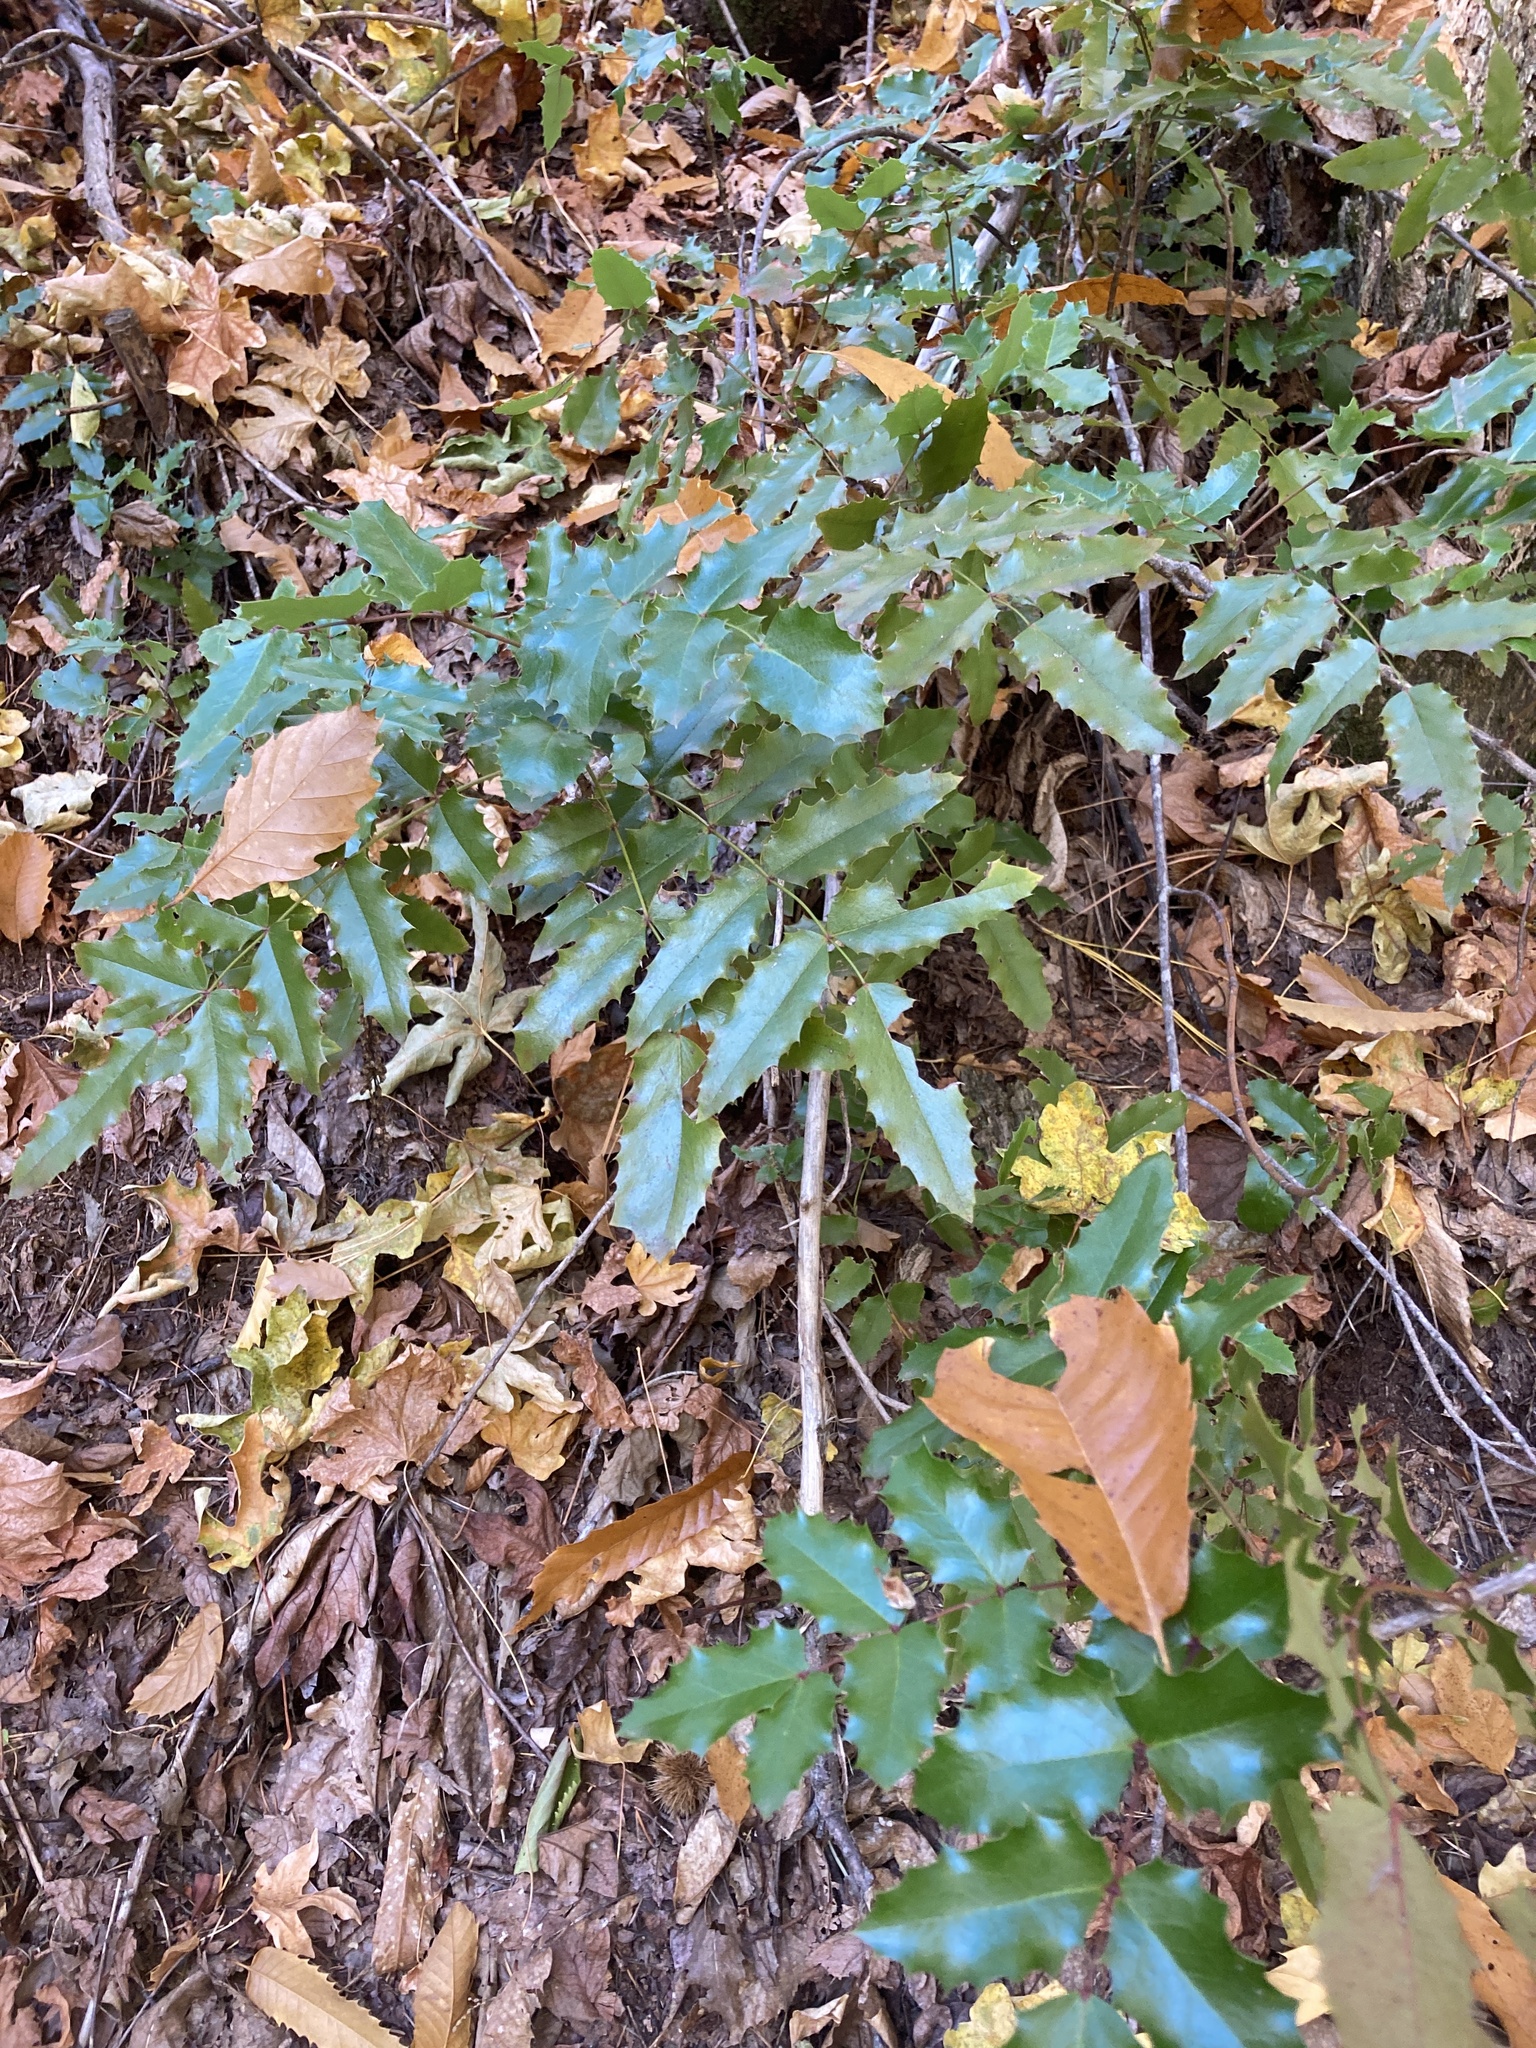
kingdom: Plantae
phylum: Tracheophyta
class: Magnoliopsida
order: Ranunculales
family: Berberidaceae
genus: Mahonia
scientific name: Mahonia aquifolium
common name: Oregon-grape
